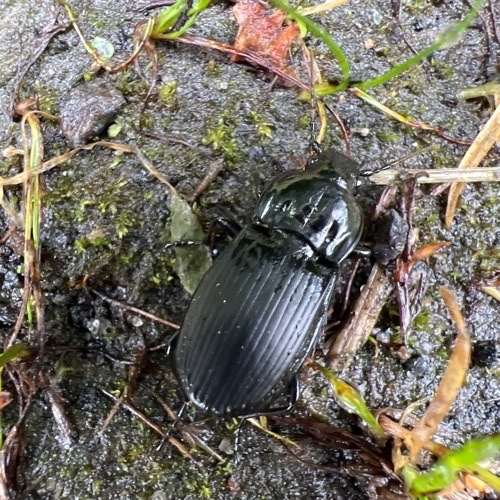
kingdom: Animalia
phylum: Arthropoda
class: Insecta
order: Coleoptera
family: Carabidae
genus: Abax
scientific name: Abax parallelepipedus
